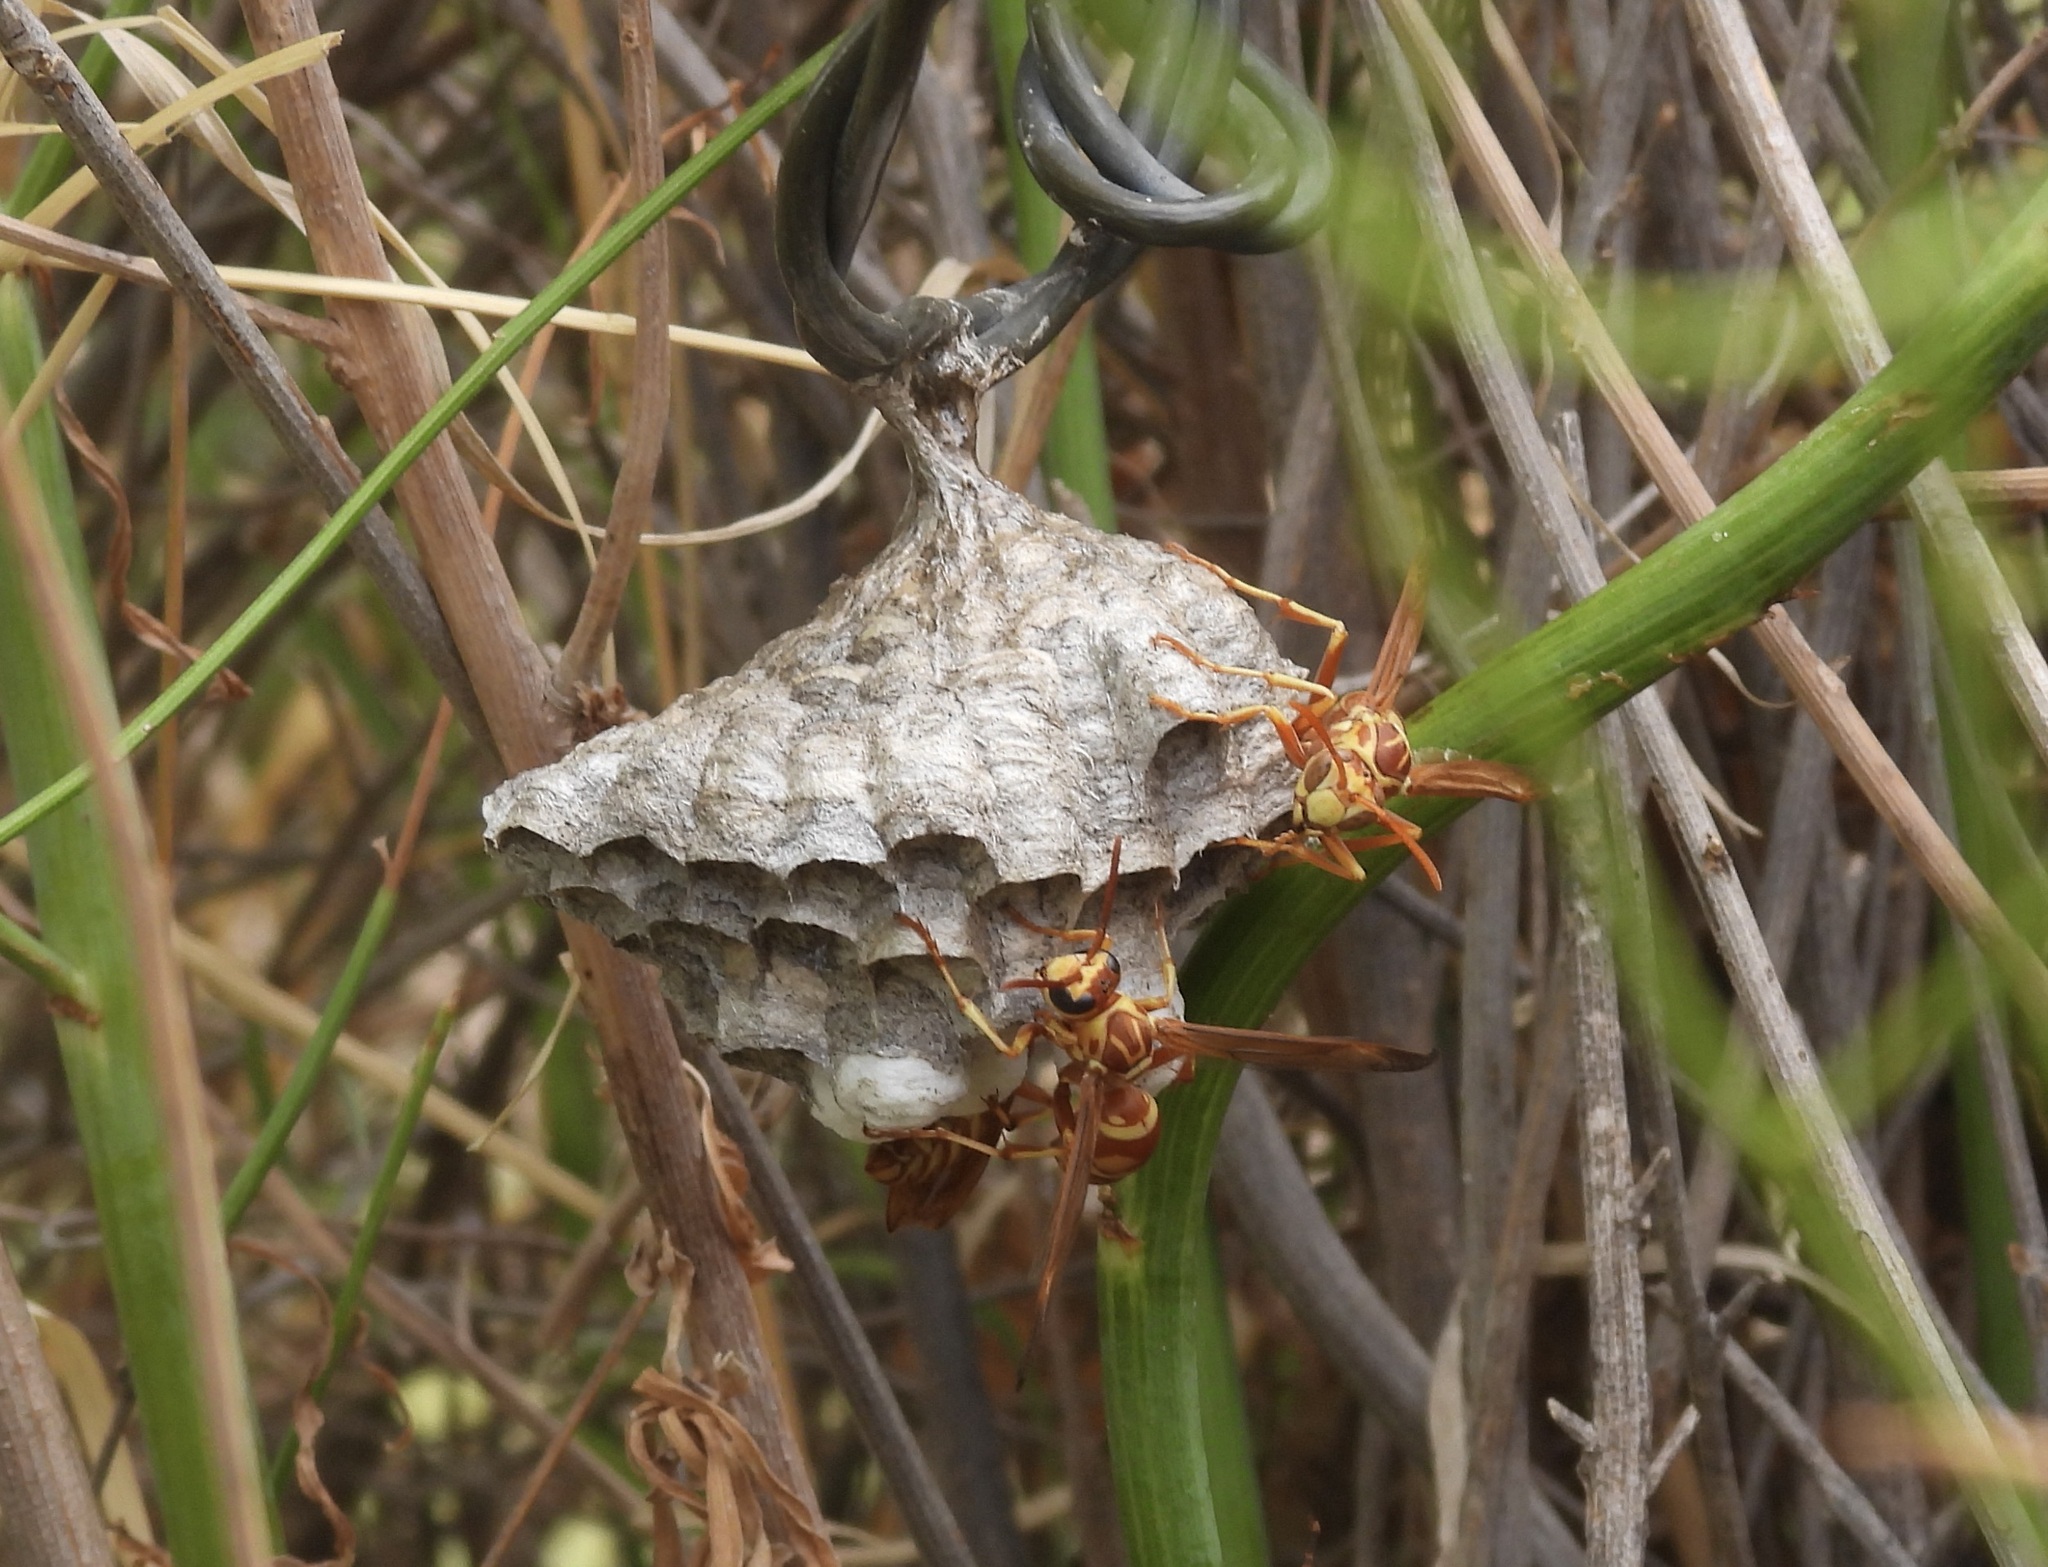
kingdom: Animalia
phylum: Arthropoda
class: Insecta
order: Hymenoptera
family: Eumenidae
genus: Polistes
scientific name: Polistes apachus
